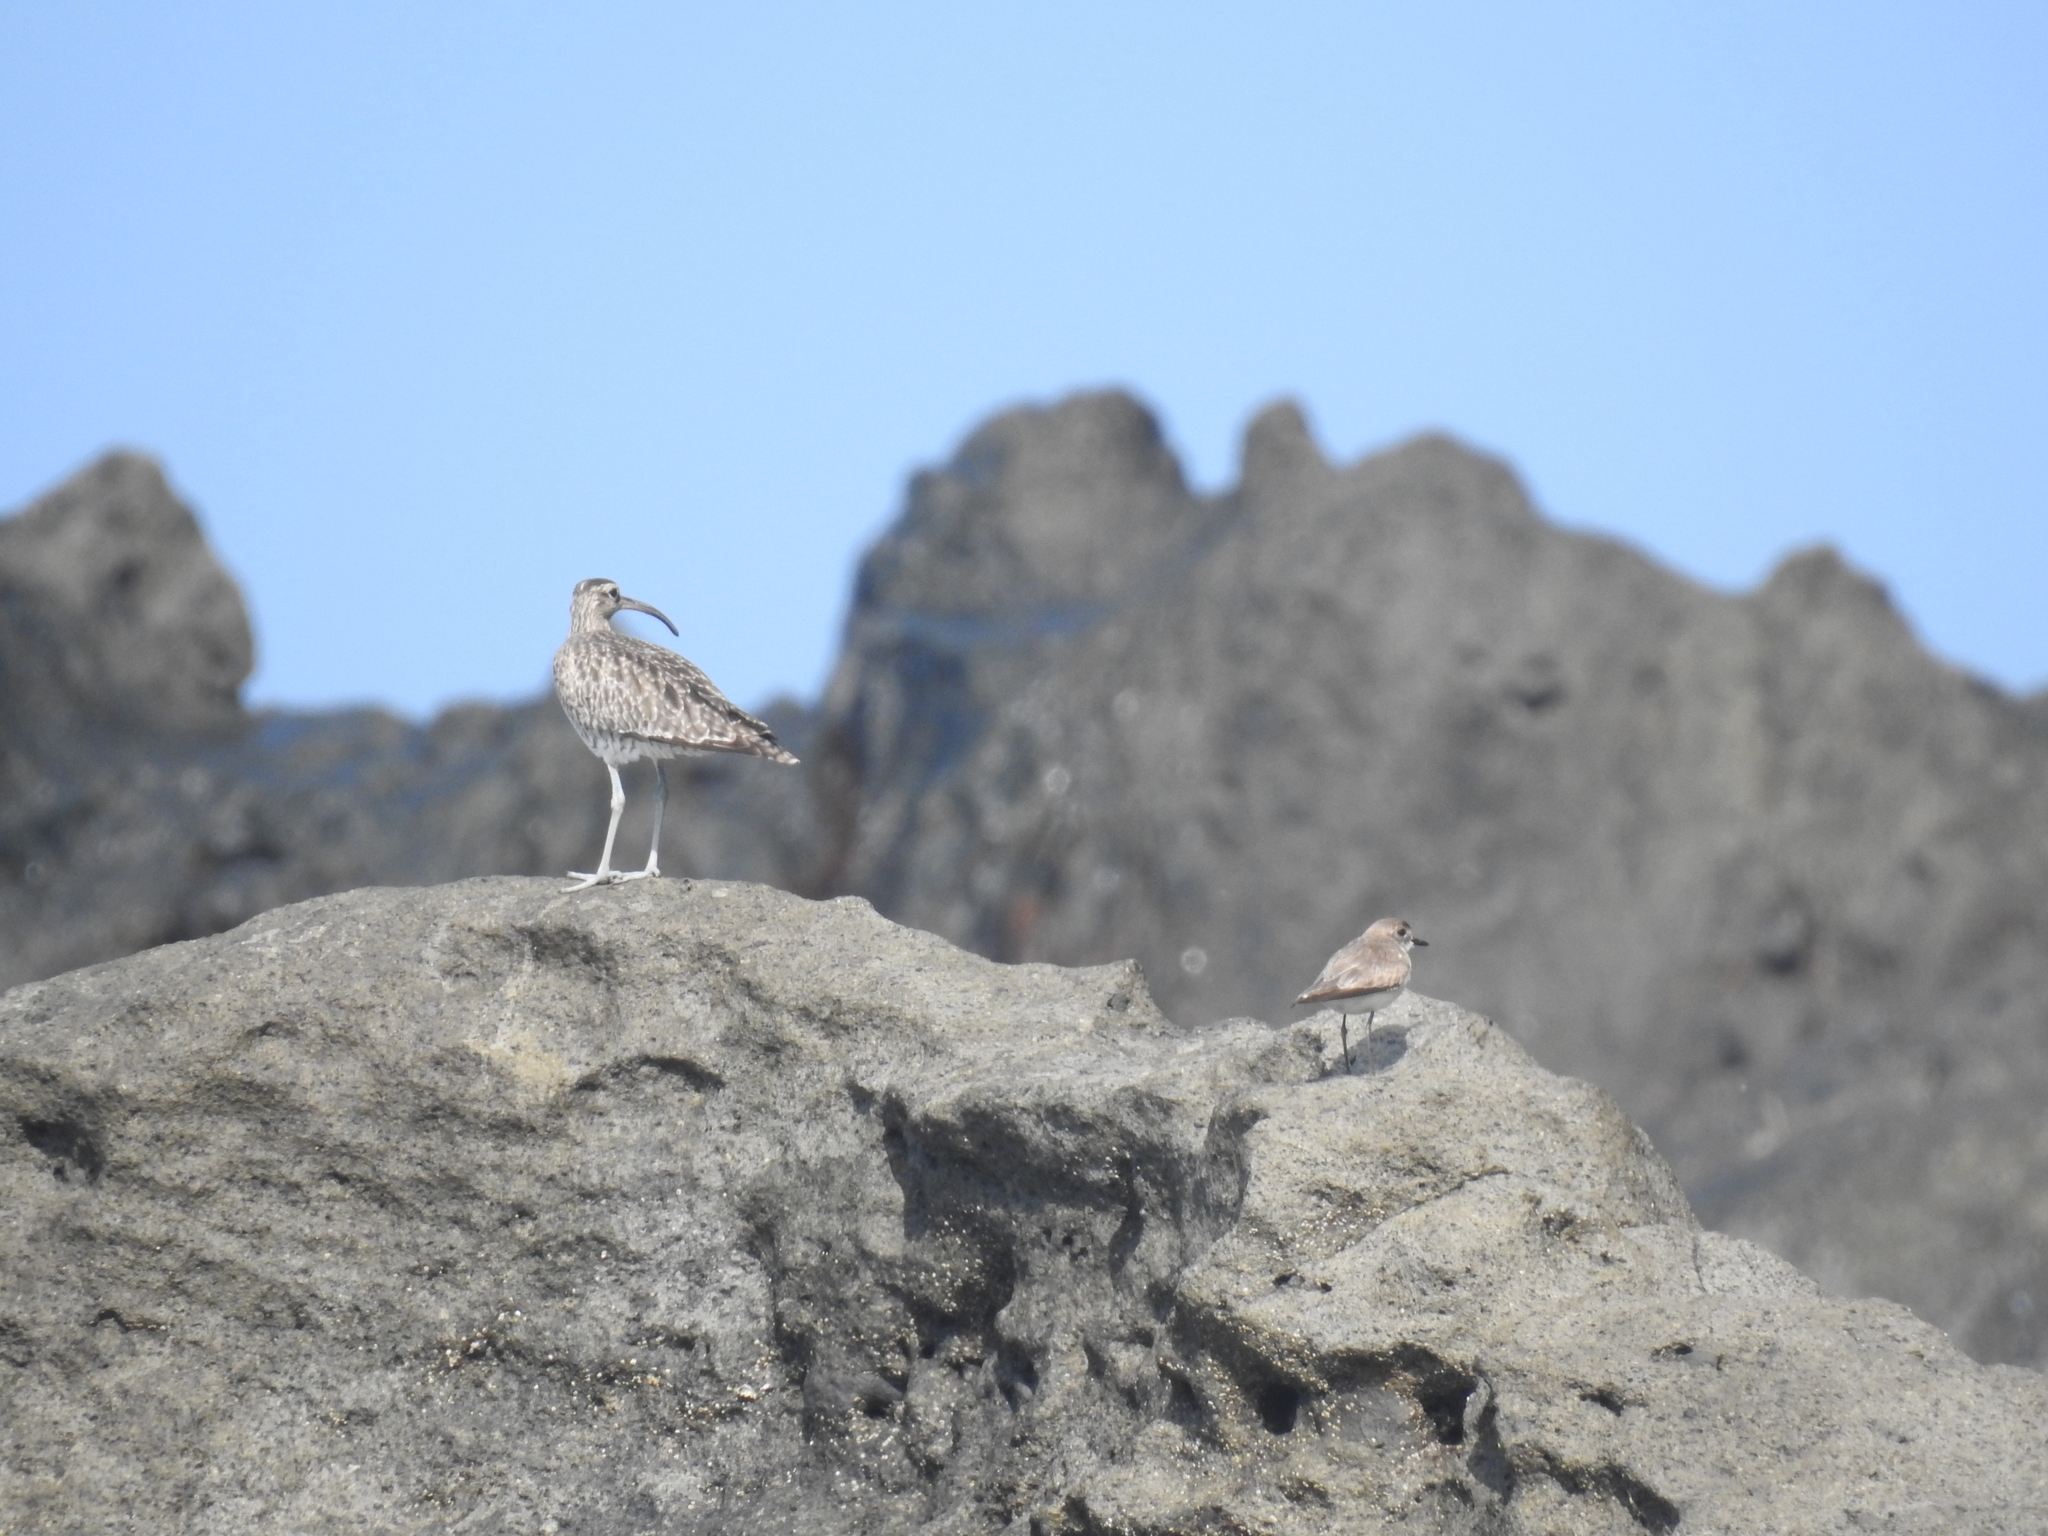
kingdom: Animalia
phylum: Chordata
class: Aves
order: Charadriiformes
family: Scolopacidae
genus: Numenius
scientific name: Numenius phaeopus
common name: Whimbrel
